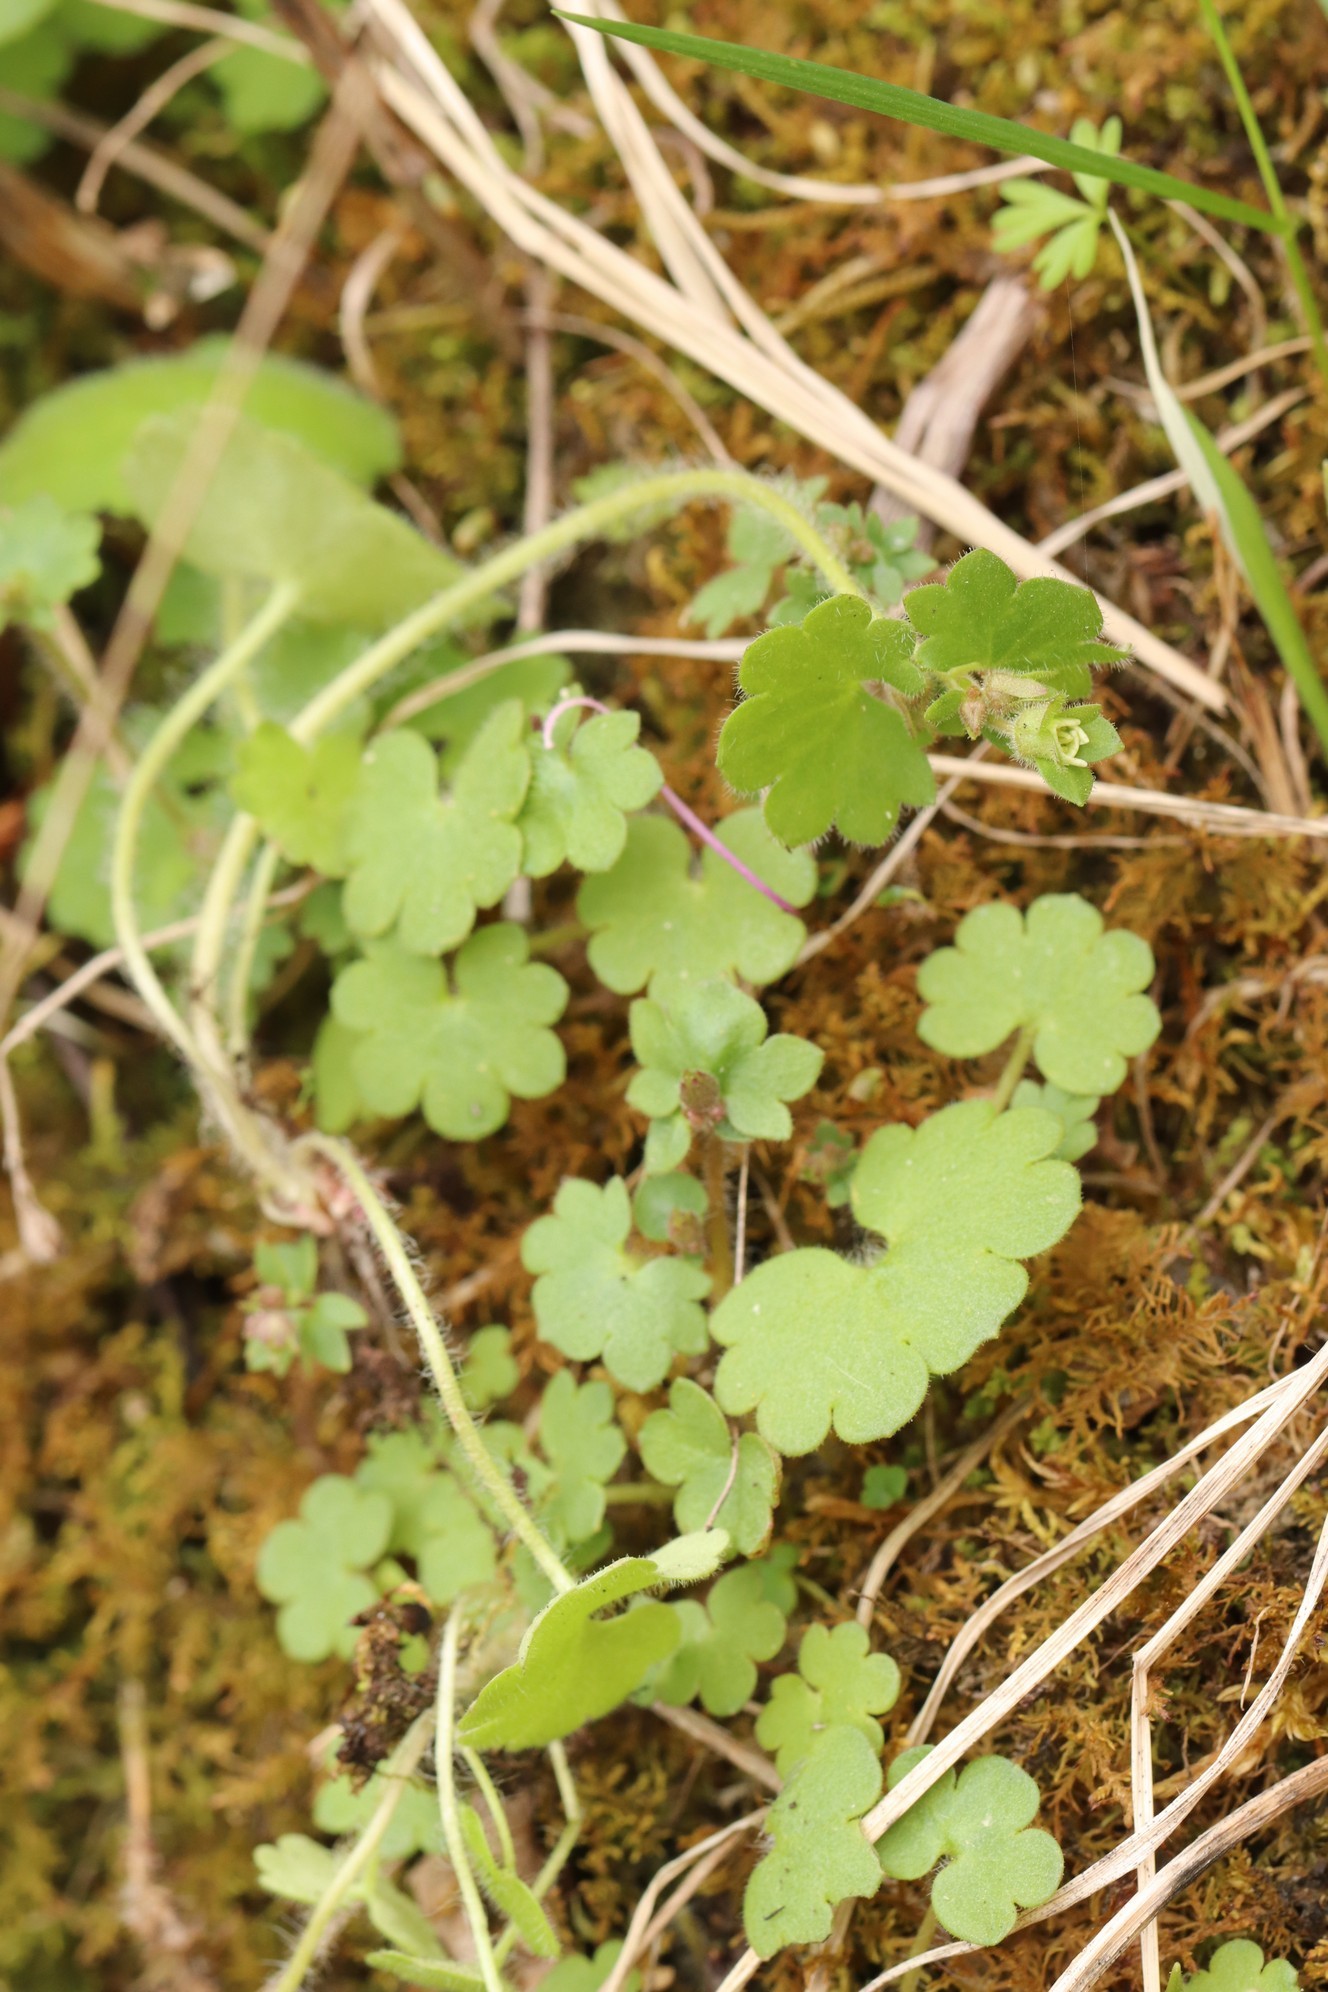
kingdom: Plantae
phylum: Tracheophyta
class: Magnoliopsida
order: Saxifragales
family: Saxifragaceae
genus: Saxifraga
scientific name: Saxifraga sibirica
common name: Siberian saxifrage
